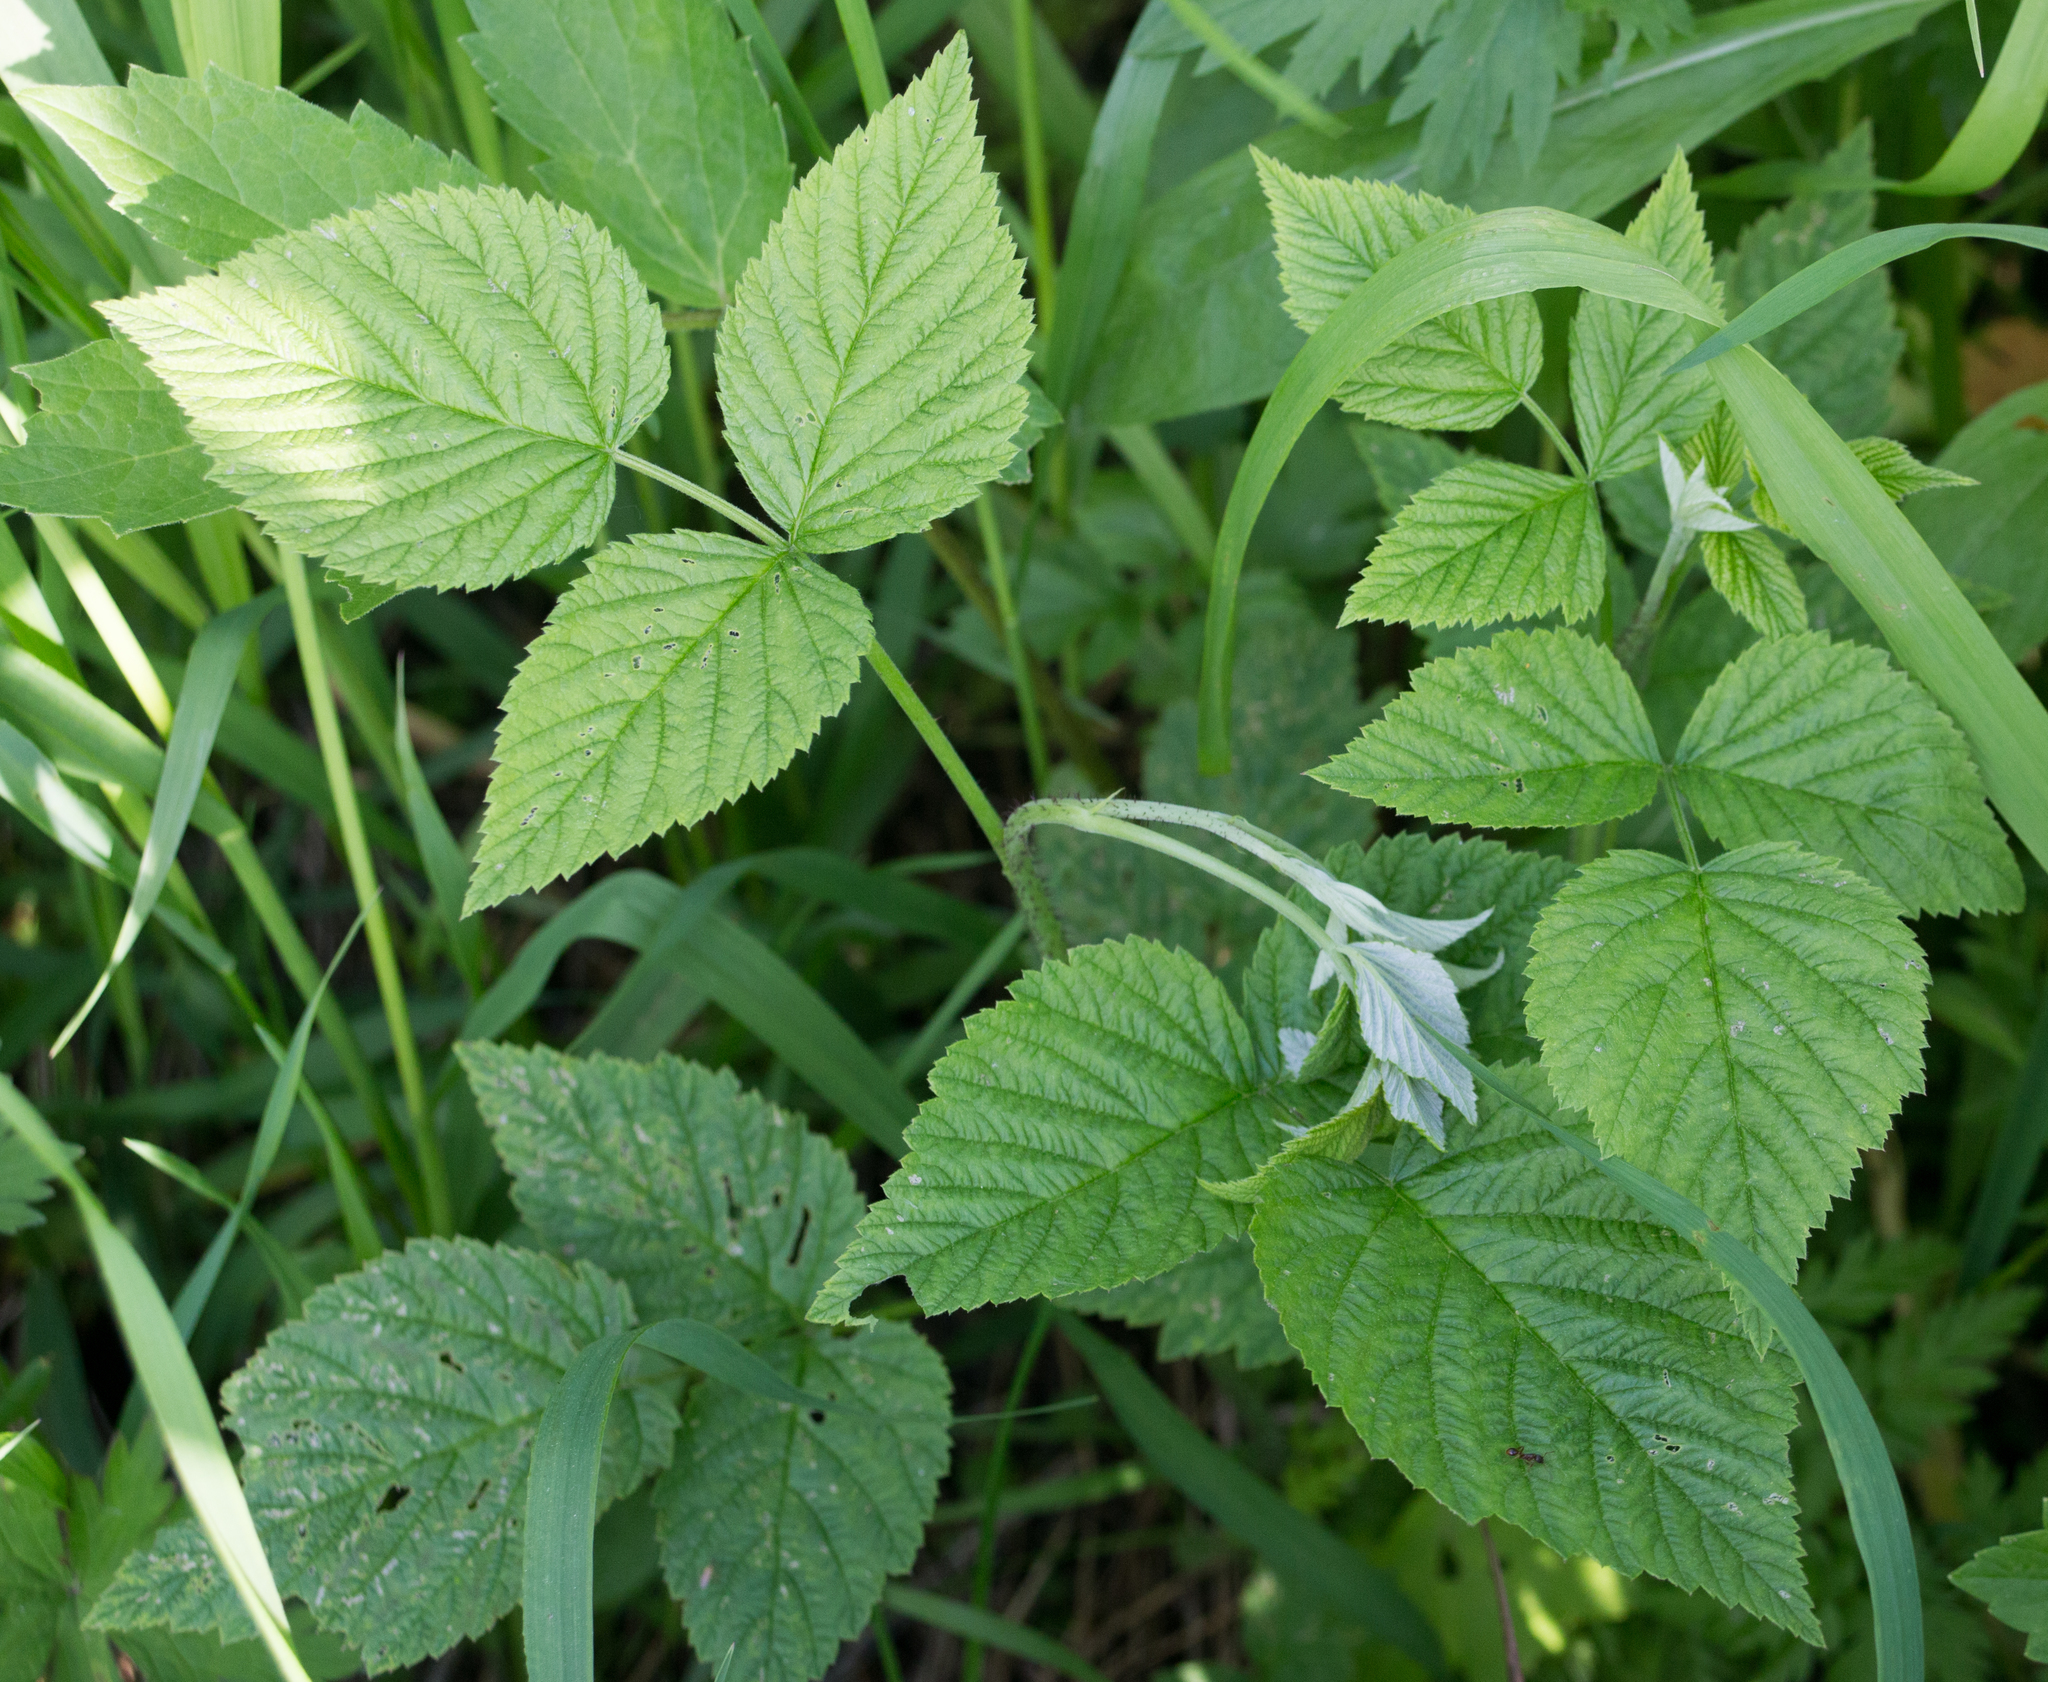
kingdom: Plantae
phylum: Tracheophyta
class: Magnoliopsida
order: Rosales
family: Rosaceae
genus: Rubus
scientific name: Rubus idaeus
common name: Raspberry
